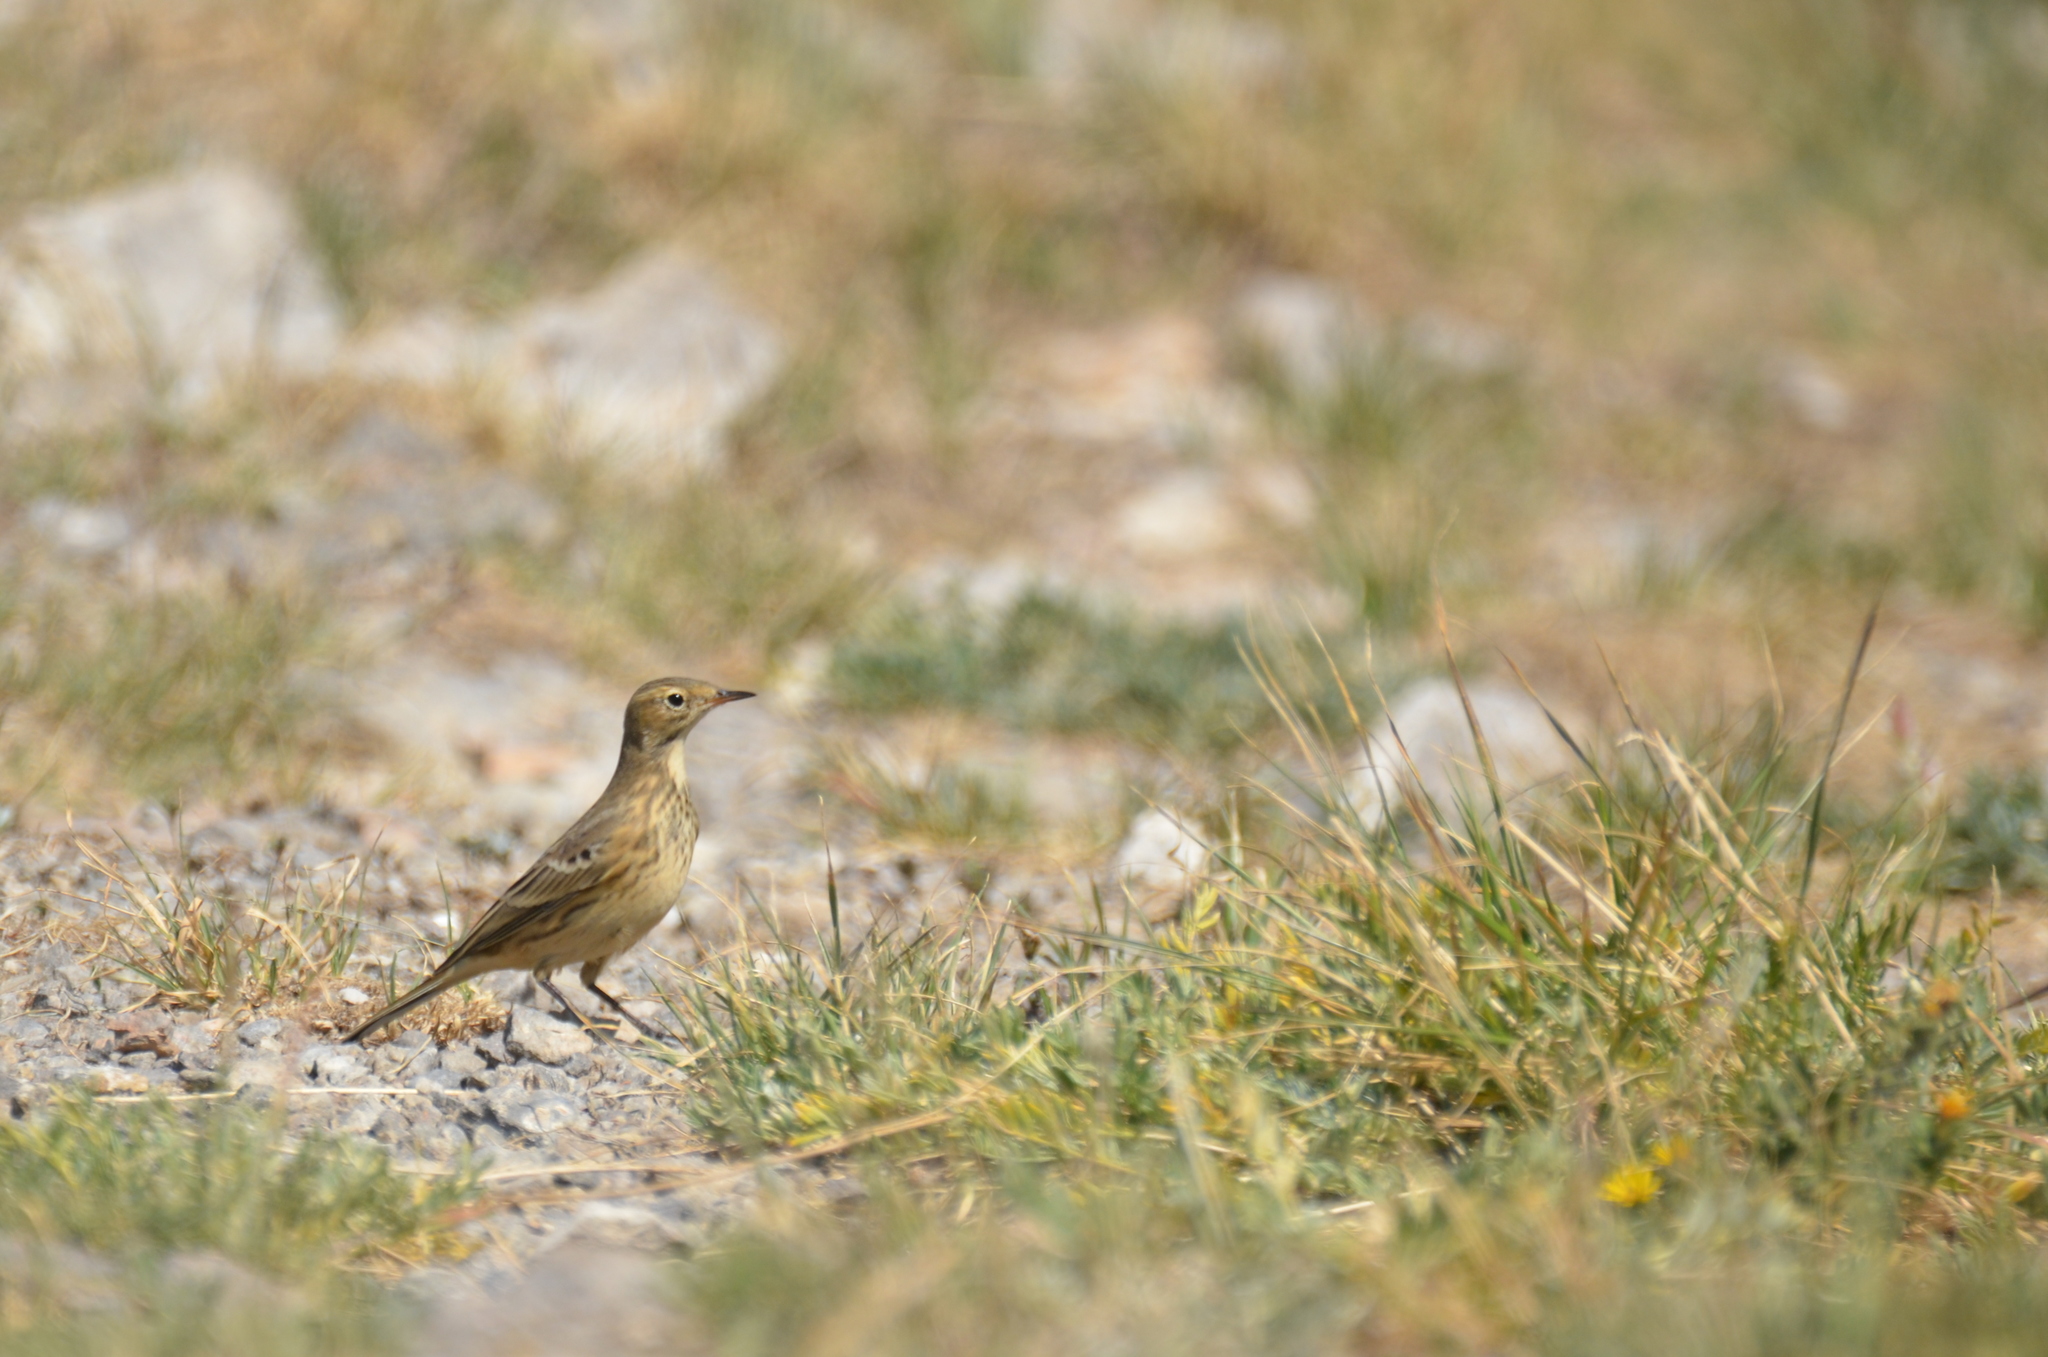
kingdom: Animalia
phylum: Chordata
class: Aves
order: Passeriformes
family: Motacillidae
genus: Anthus
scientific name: Anthus rubescens
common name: Buff-bellied pipit
